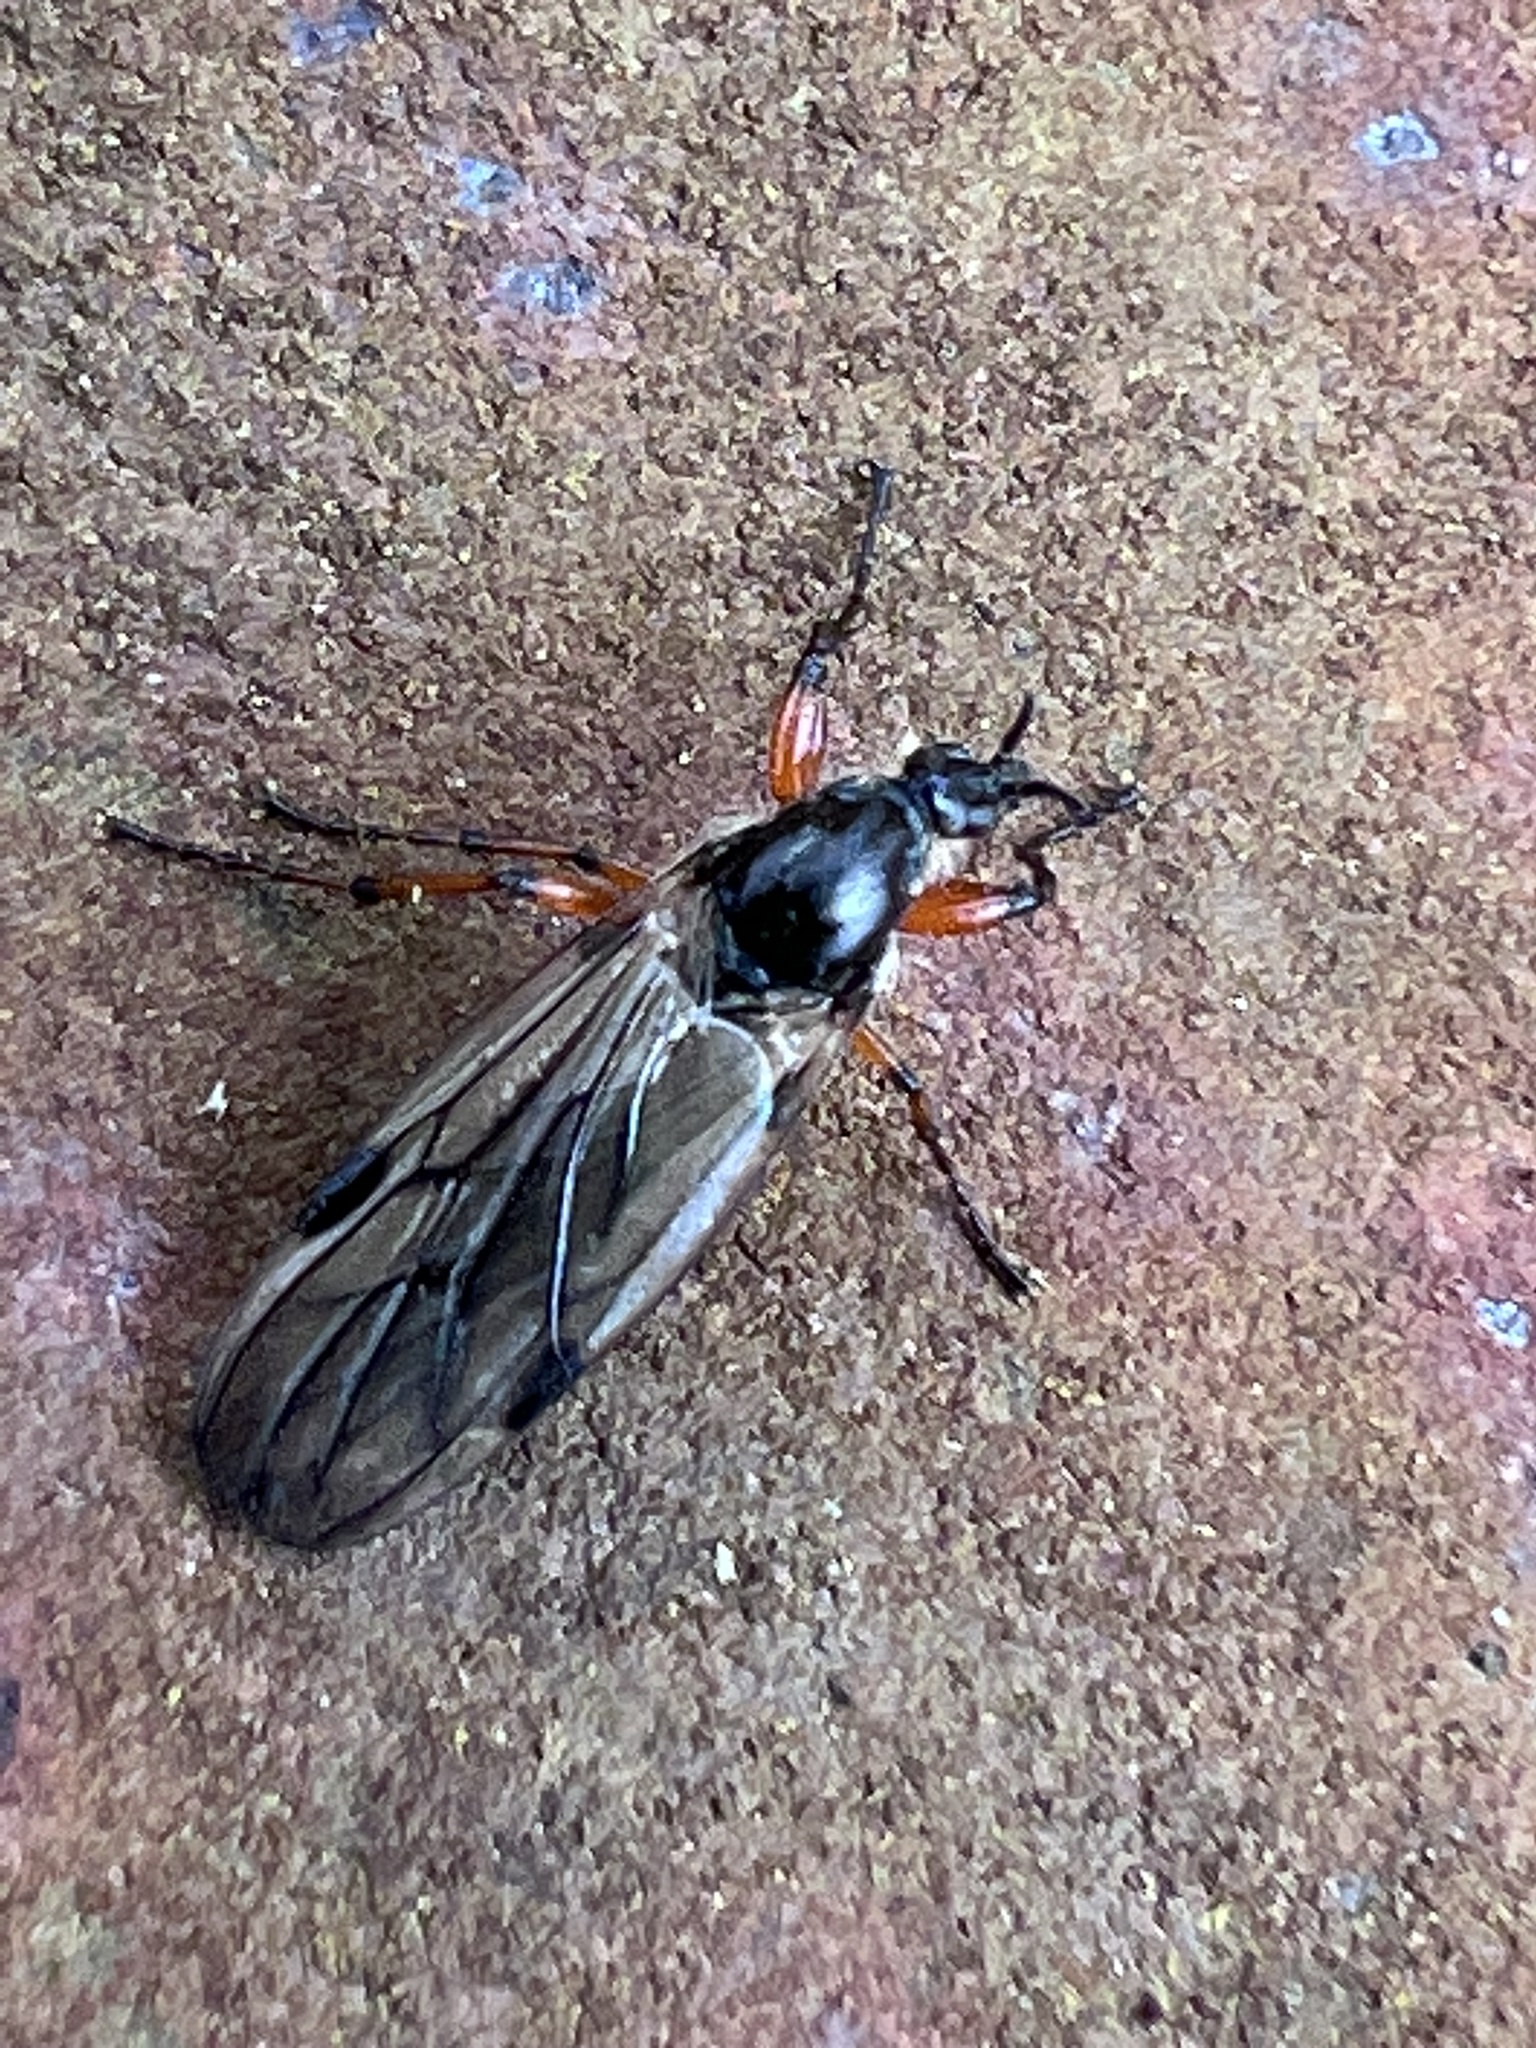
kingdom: Animalia
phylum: Arthropoda
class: Insecta
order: Diptera
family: Bibionidae
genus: Bibio
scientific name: Bibio
